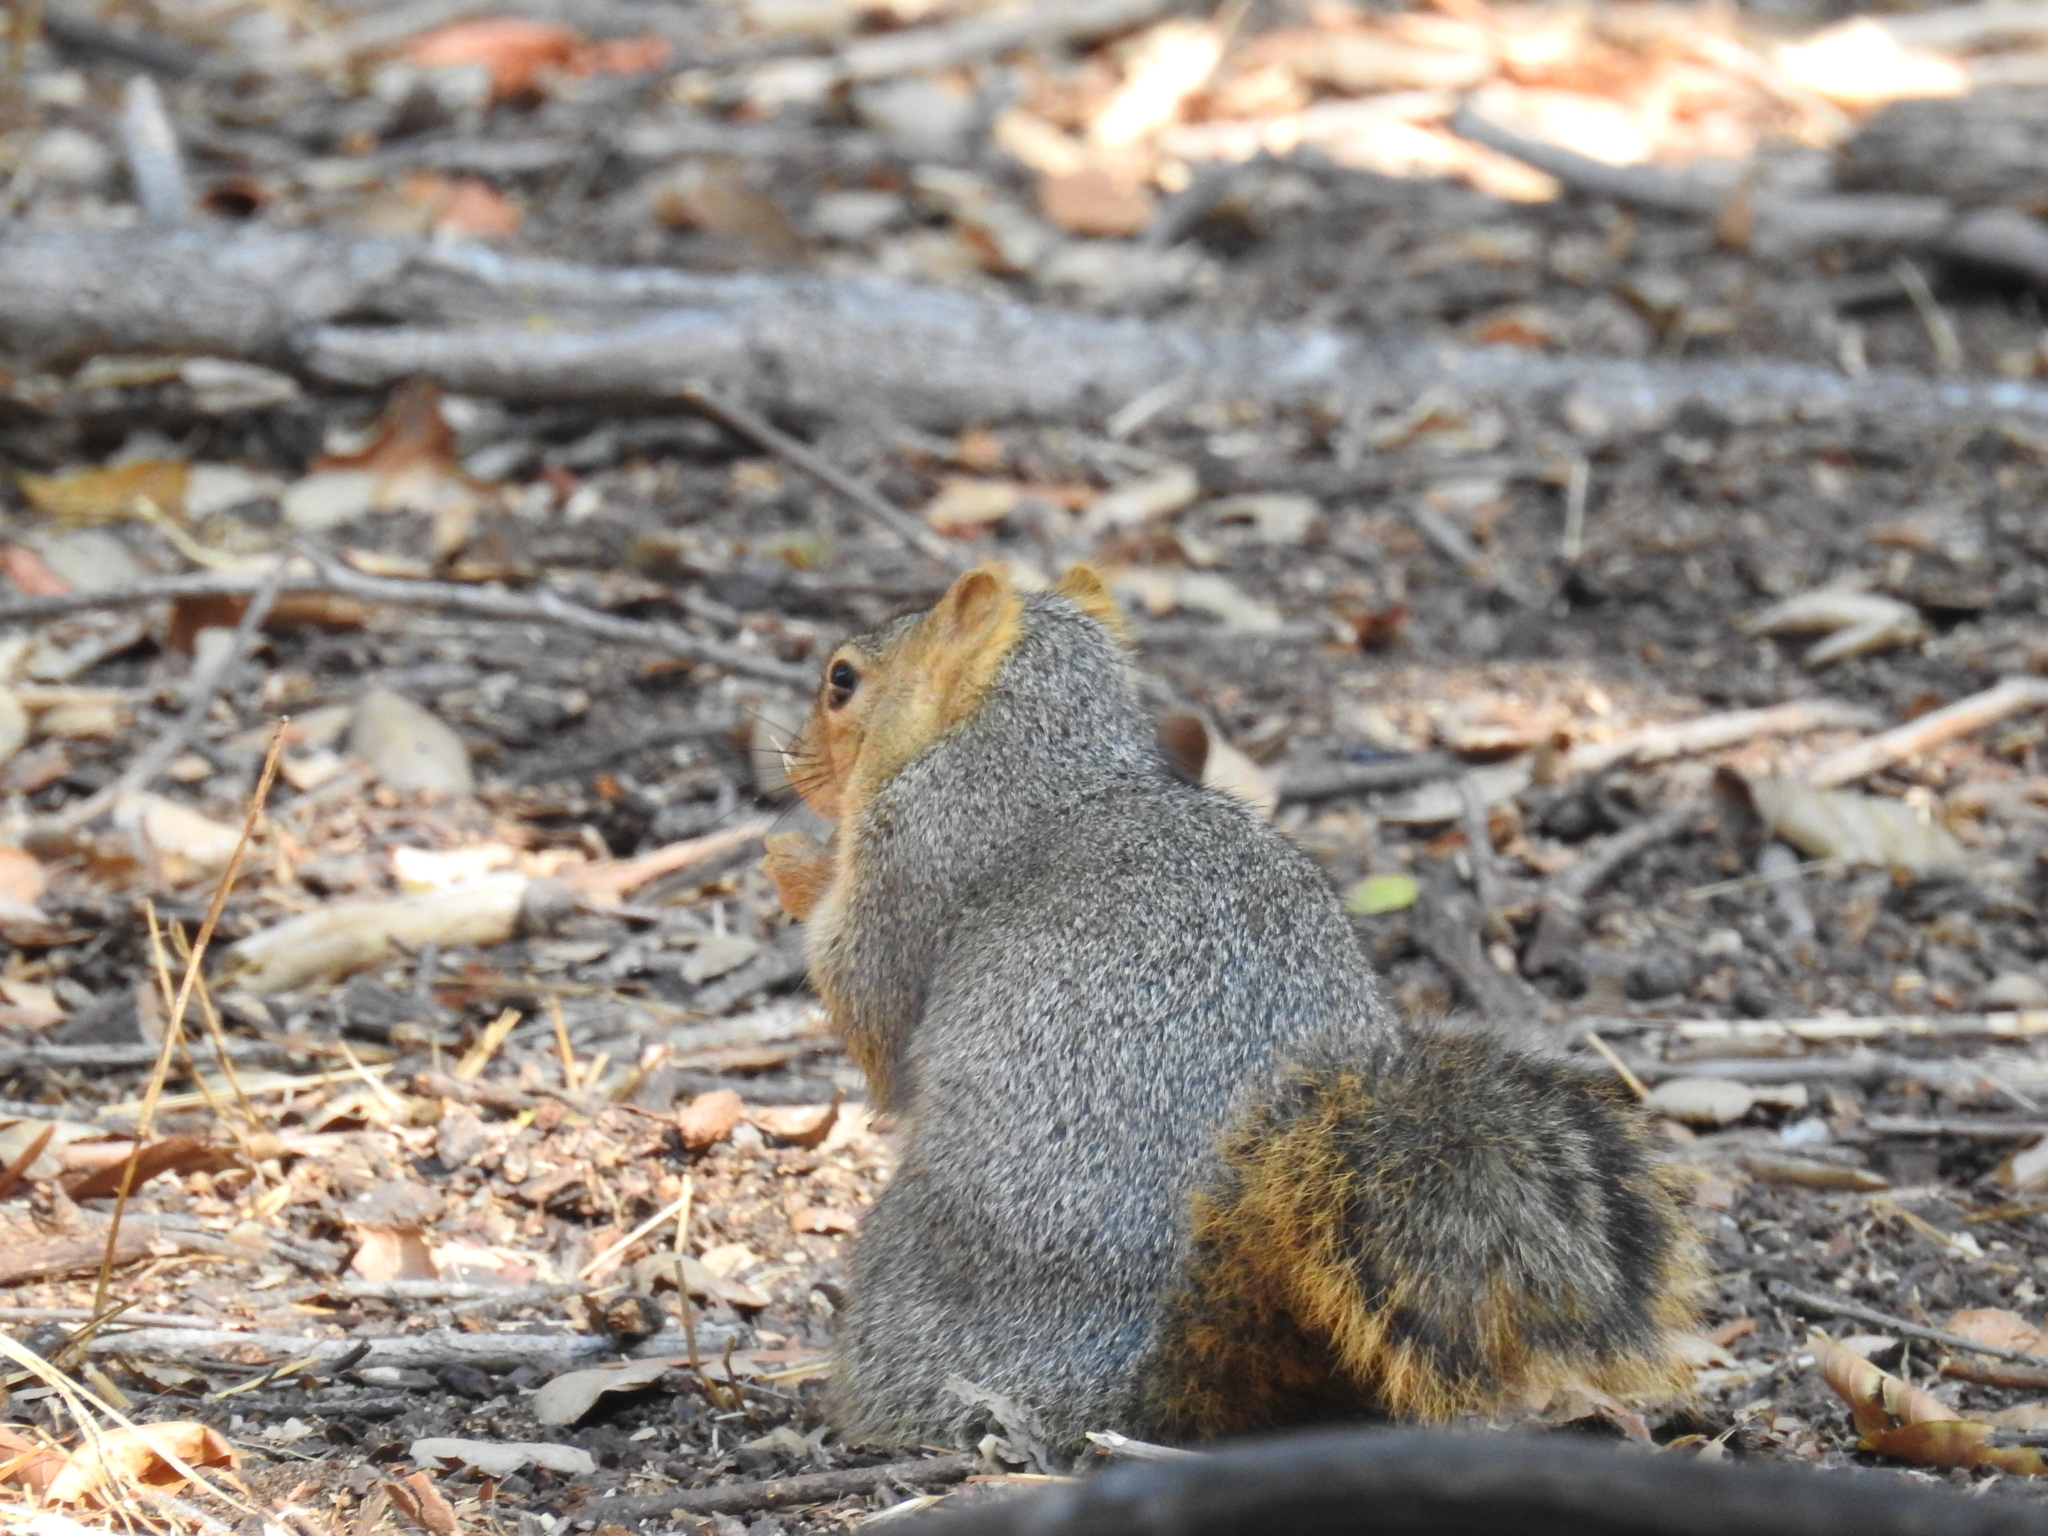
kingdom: Animalia
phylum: Chordata
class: Mammalia
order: Rodentia
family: Sciuridae
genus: Sciurus
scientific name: Sciurus niger
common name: Fox squirrel
